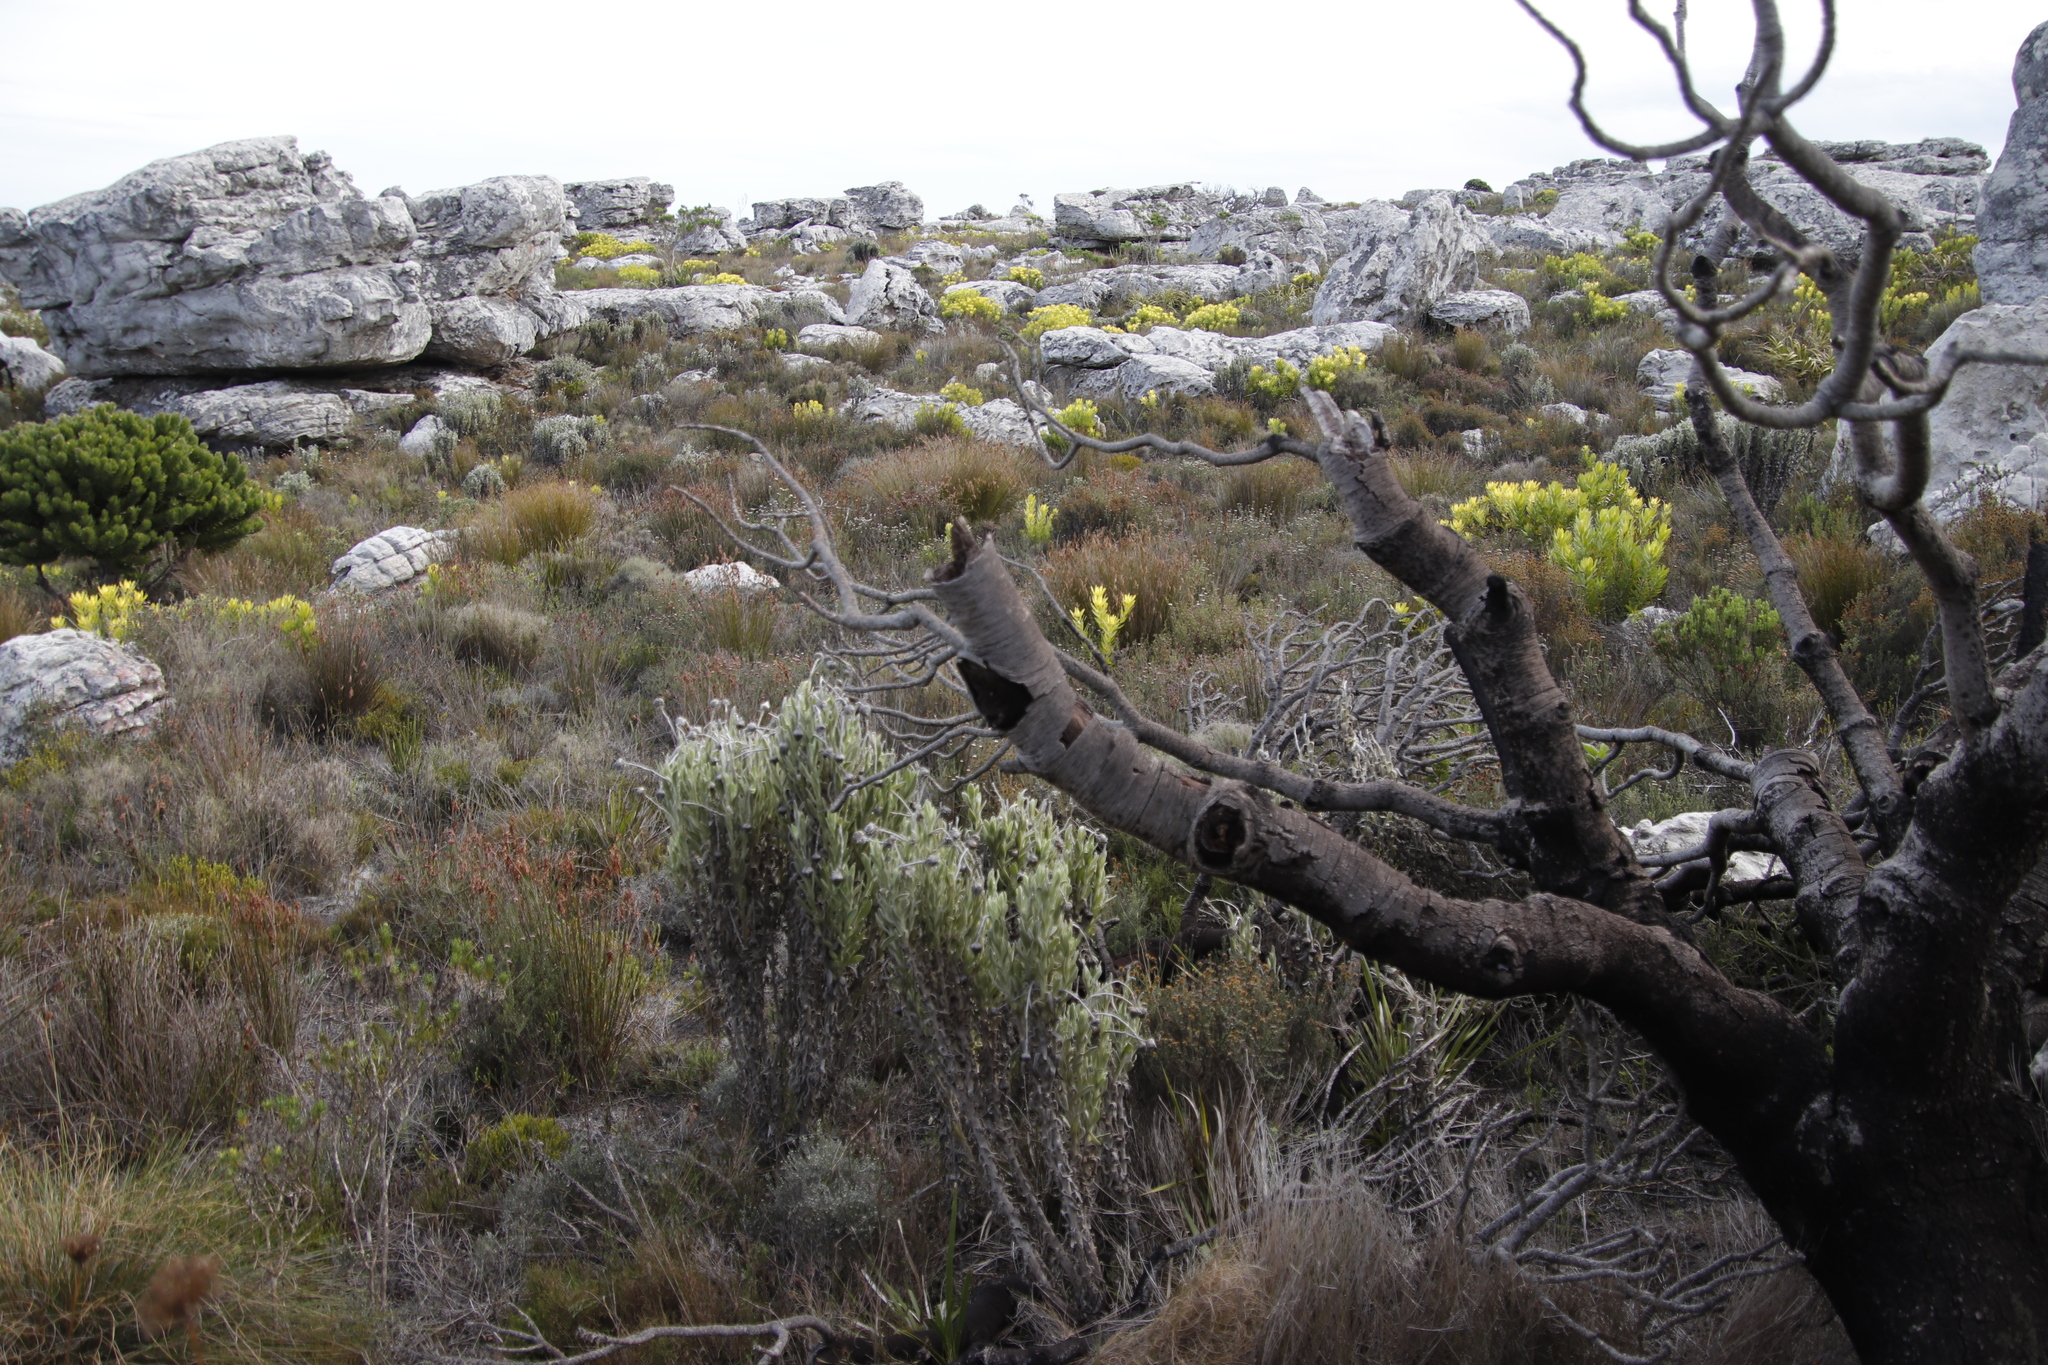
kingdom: Plantae
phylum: Tracheophyta
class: Magnoliopsida
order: Proteales
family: Proteaceae
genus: Leucadendron
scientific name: Leucadendron laureolum
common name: Golden sunshinebush
